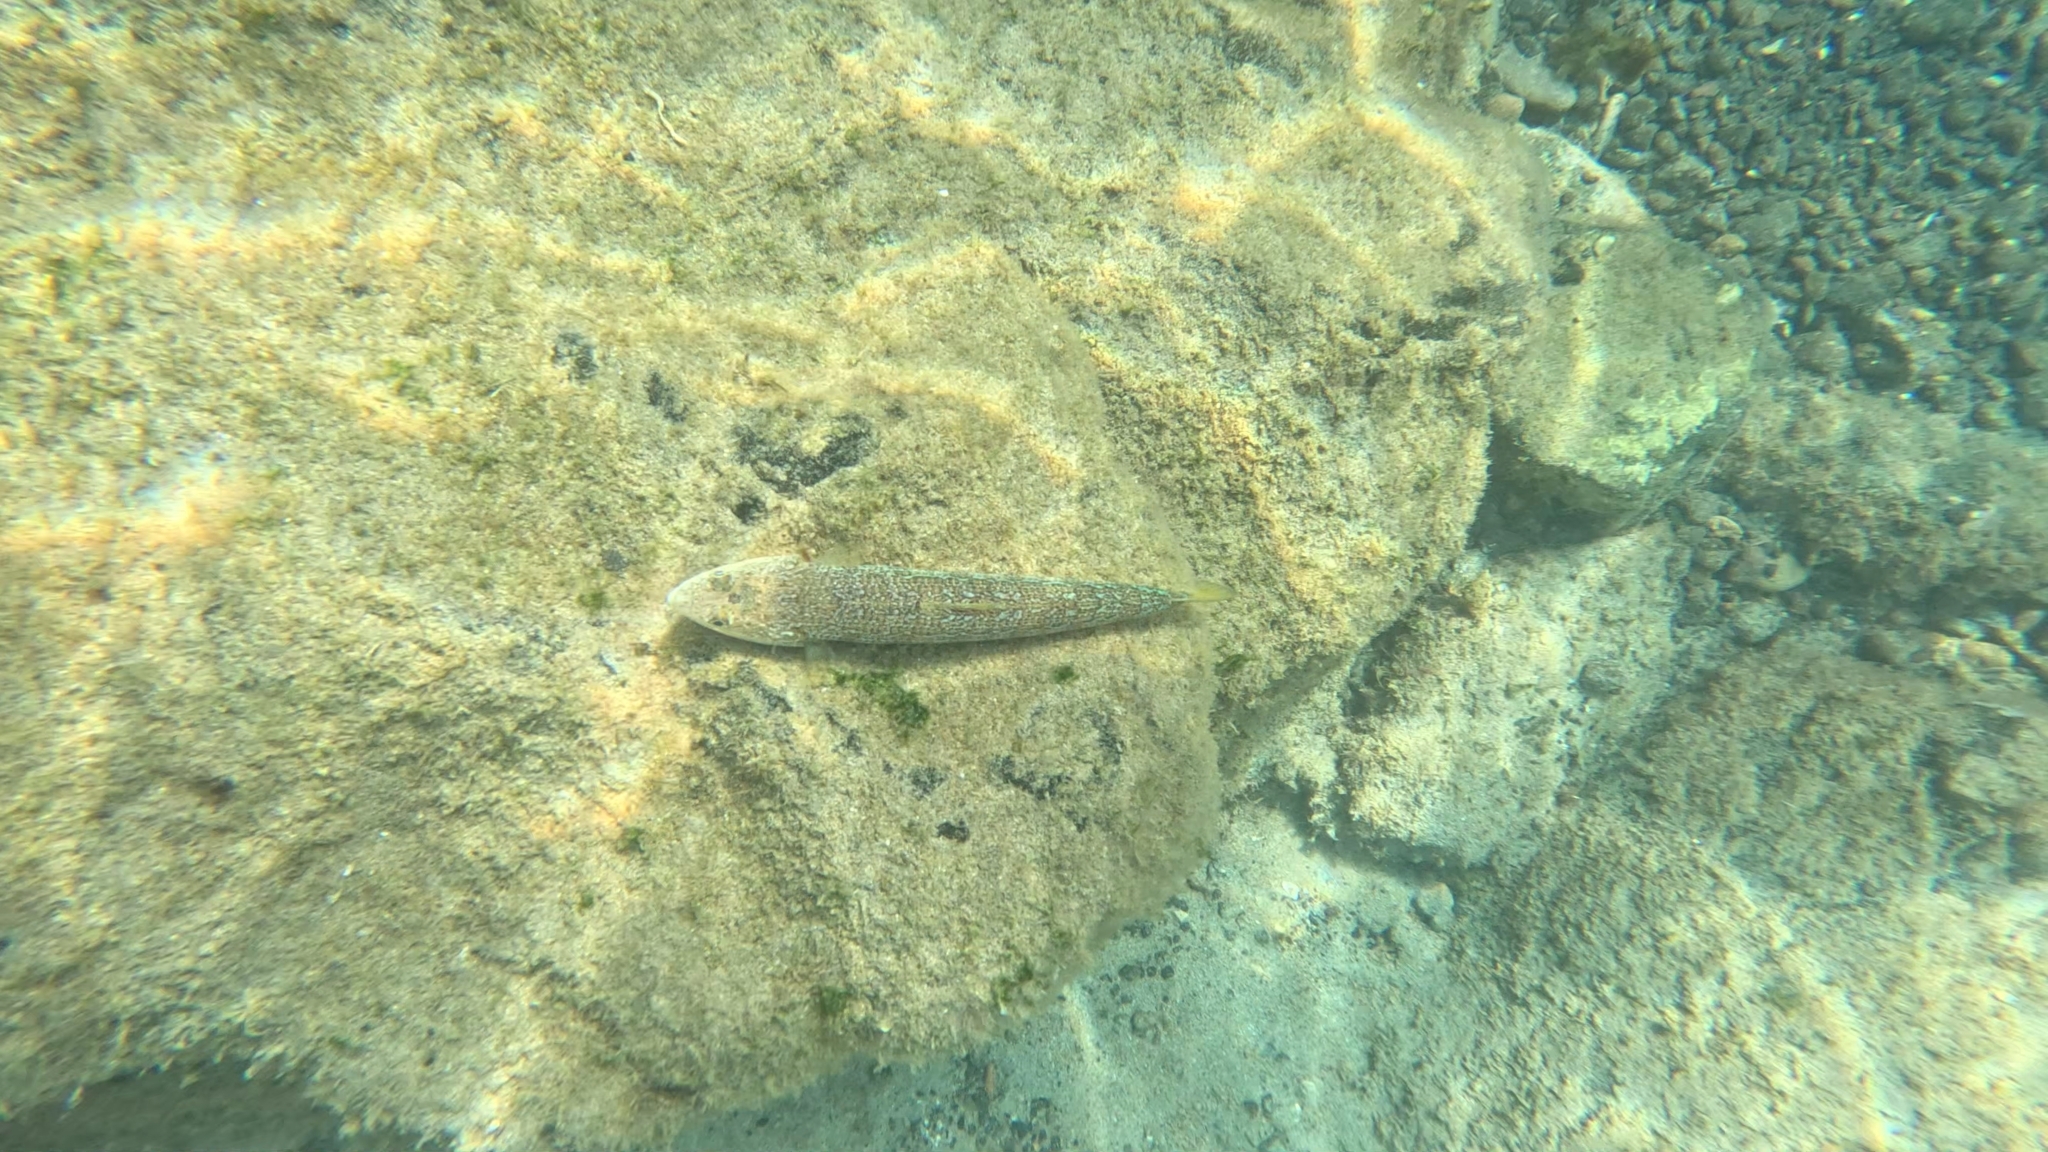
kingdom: Animalia
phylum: Chordata
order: Aulopiformes
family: Synodontidae
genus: Synodus
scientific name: Synodus saurus
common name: Atlantic lizardfish
